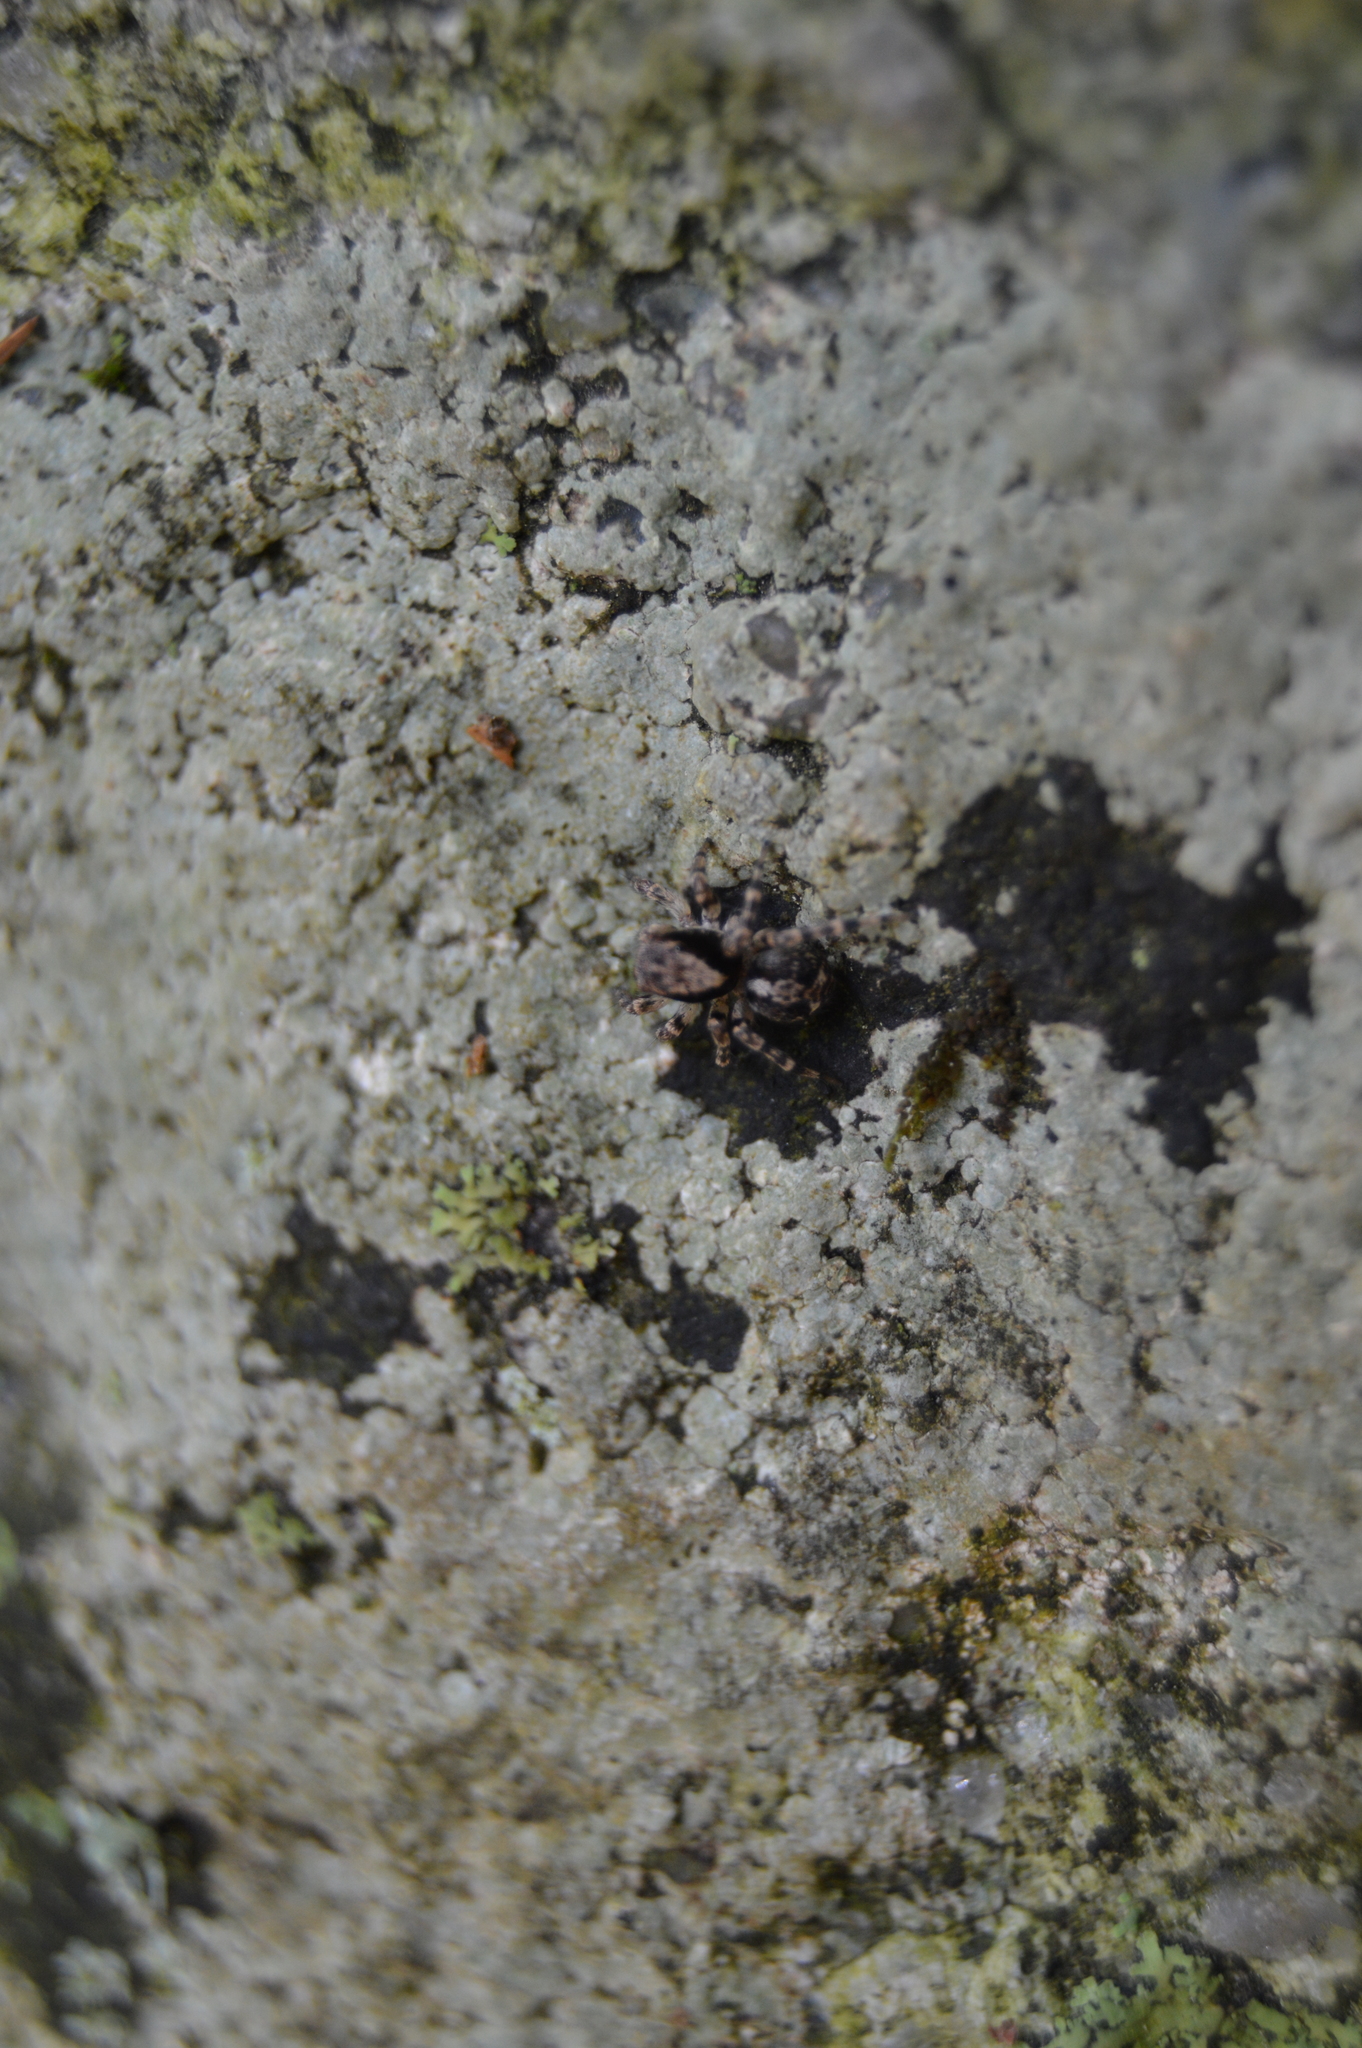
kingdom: Animalia
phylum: Arthropoda
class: Arachnida
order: Araneae
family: Salticidae
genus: Naphrys
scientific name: Naphrys pulex
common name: Flea jumping spider
